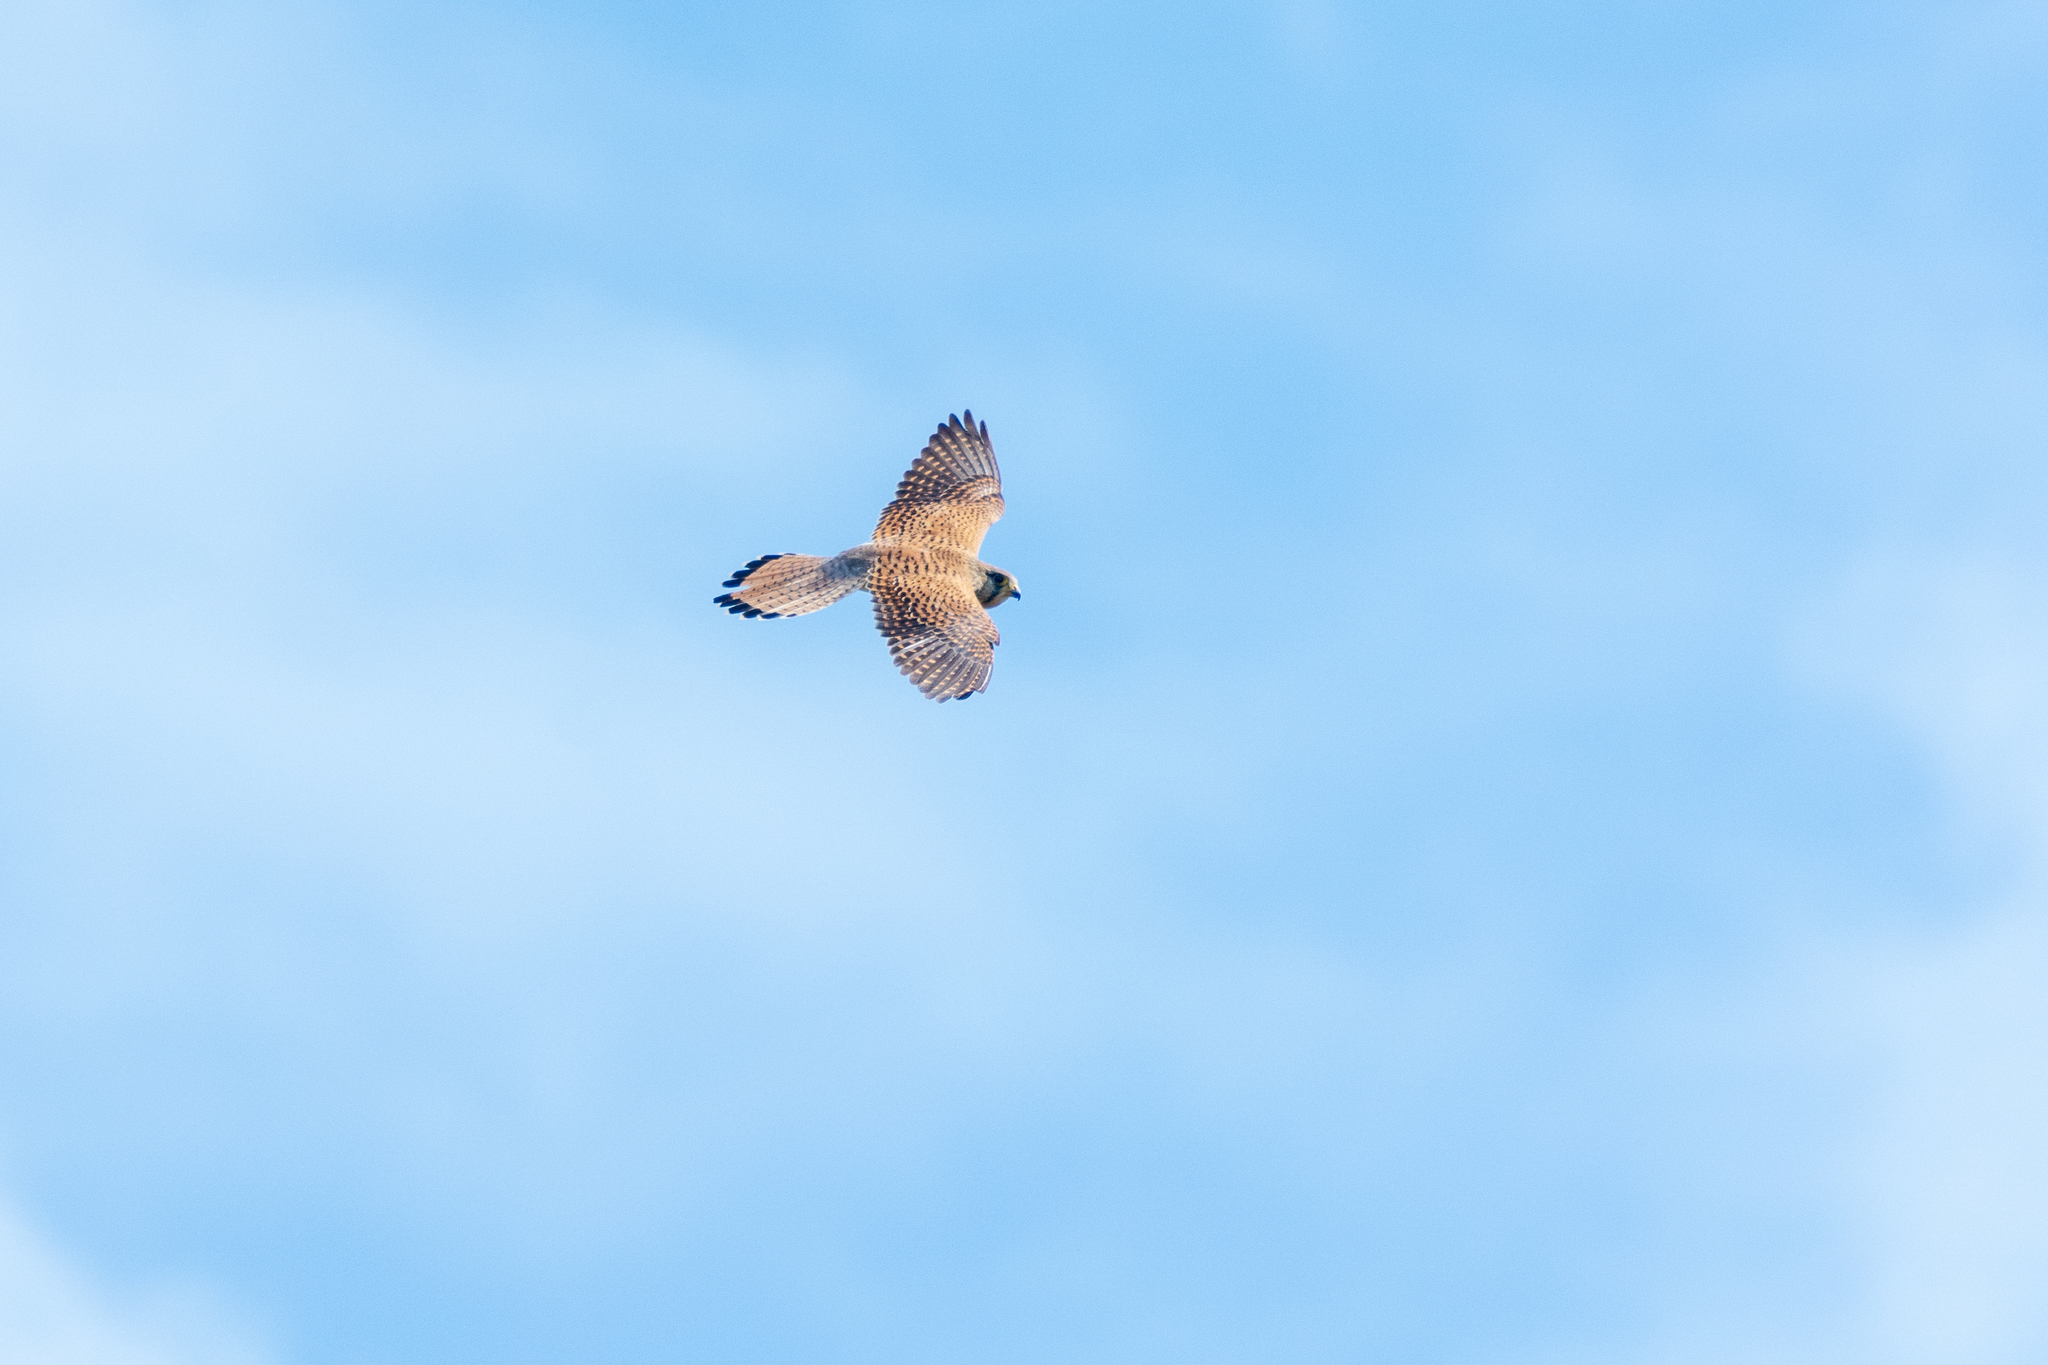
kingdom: Animalia
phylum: Chordata
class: Aves
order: Falconiformes
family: Falconidae
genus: Falco
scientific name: Falco tinnunculus
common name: Common kestrel
